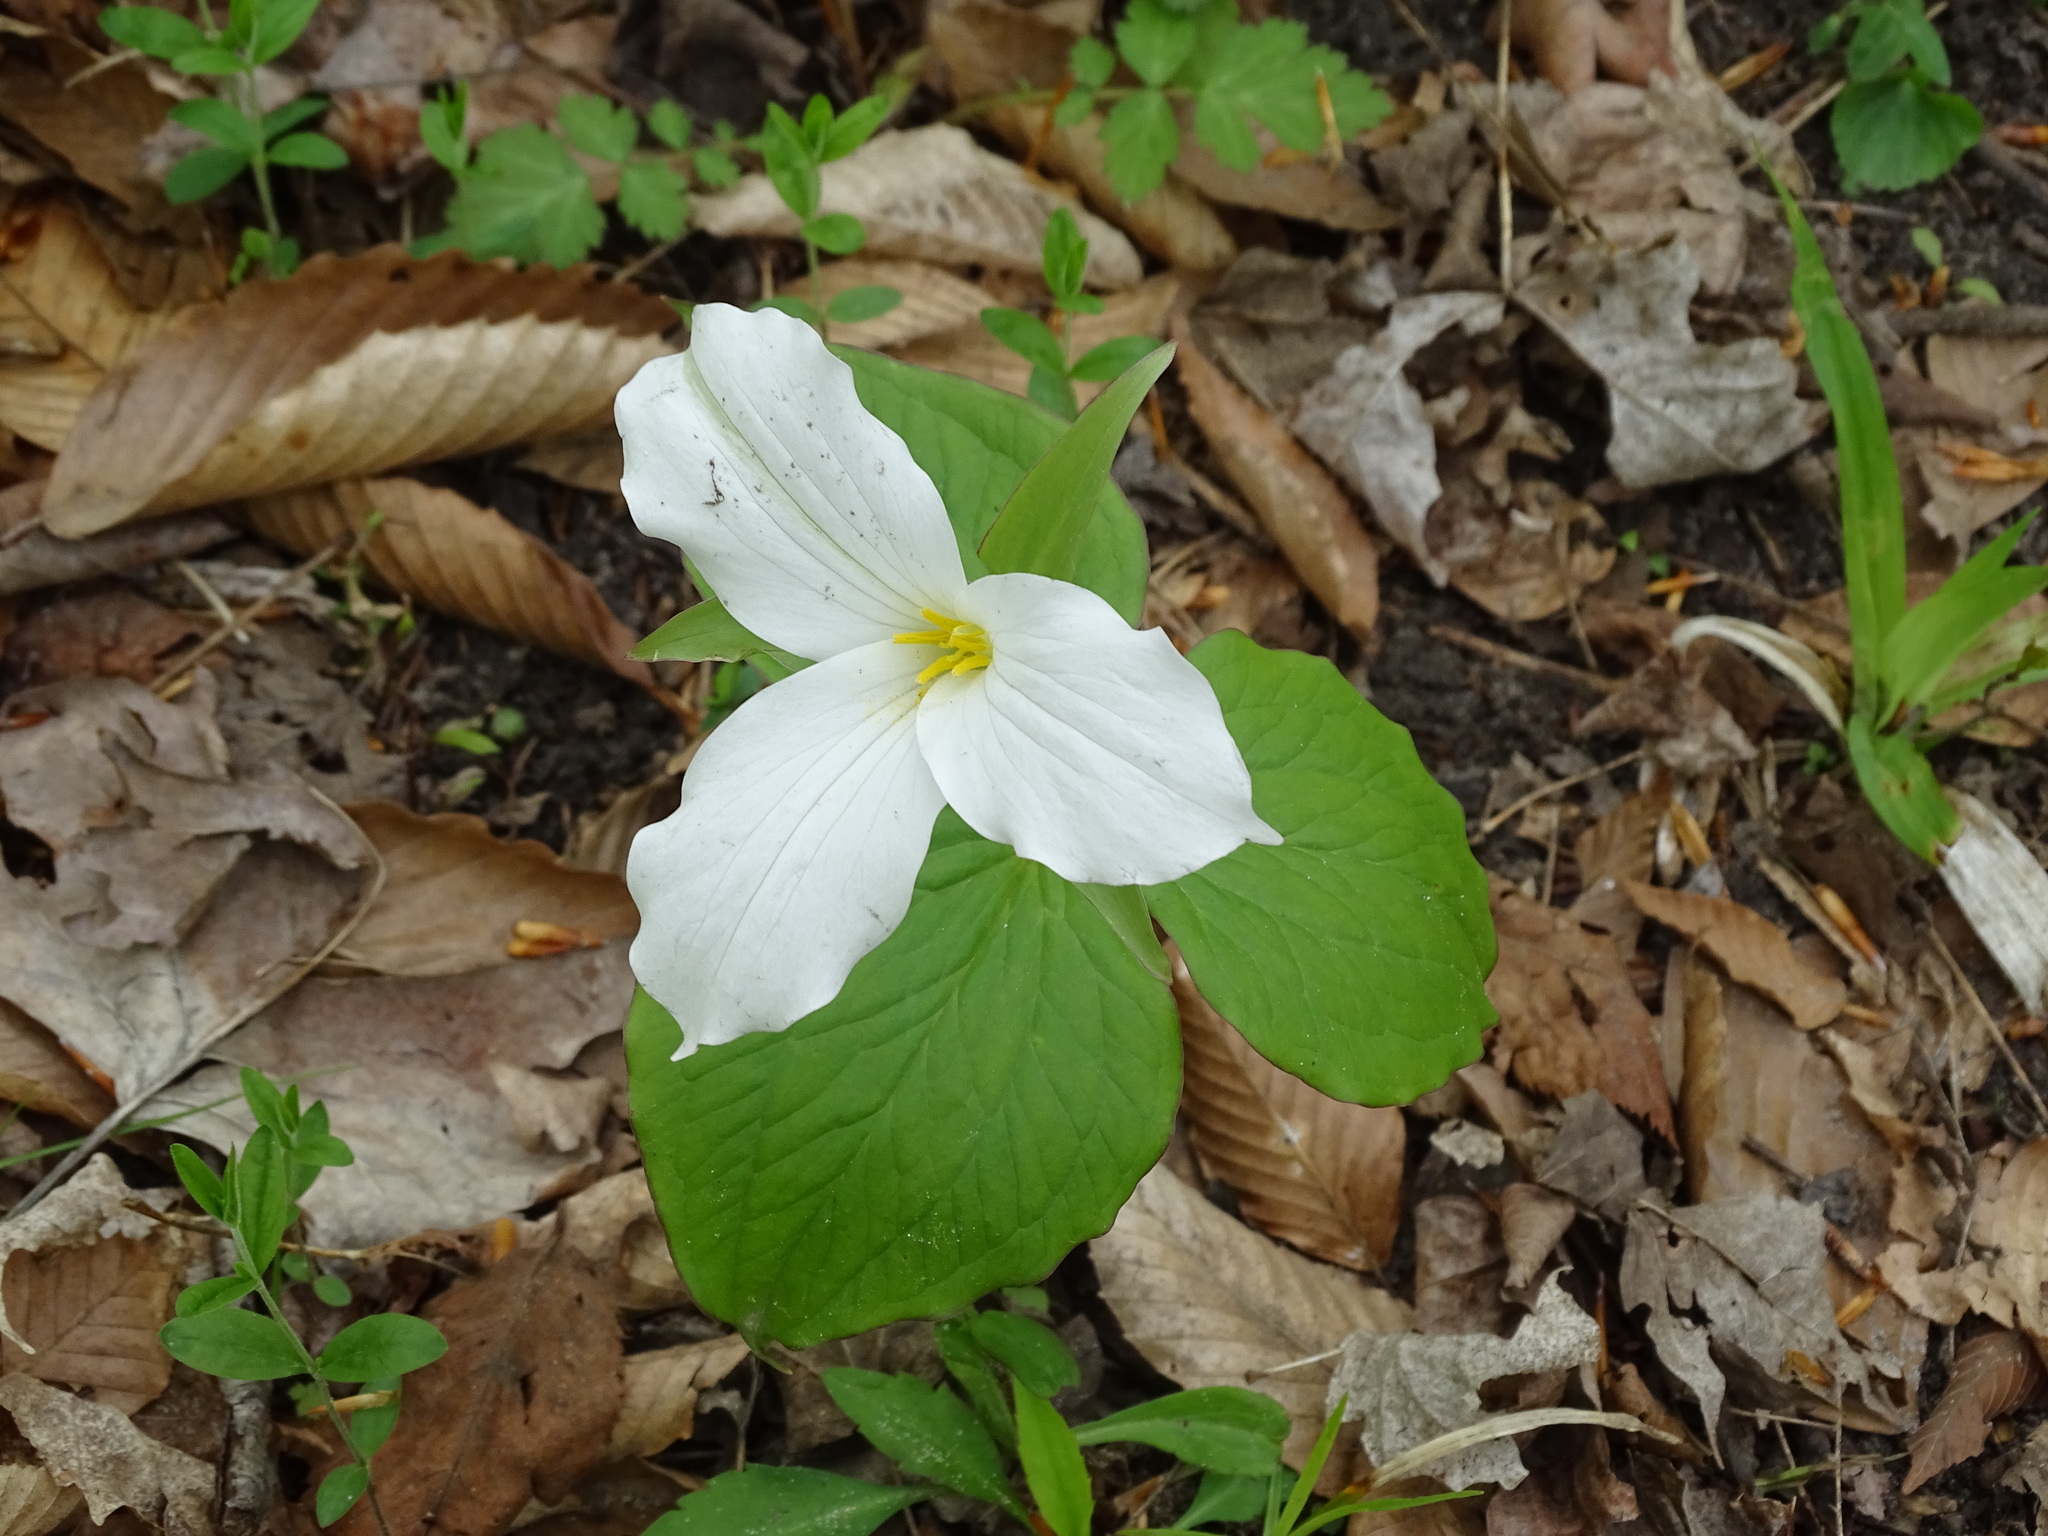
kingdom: Plantae
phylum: Tracheophyta
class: Liliopsida
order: Liliales
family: Melanthiaceae
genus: Trillium
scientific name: Trillium grandiflorum
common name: Great white trillium
